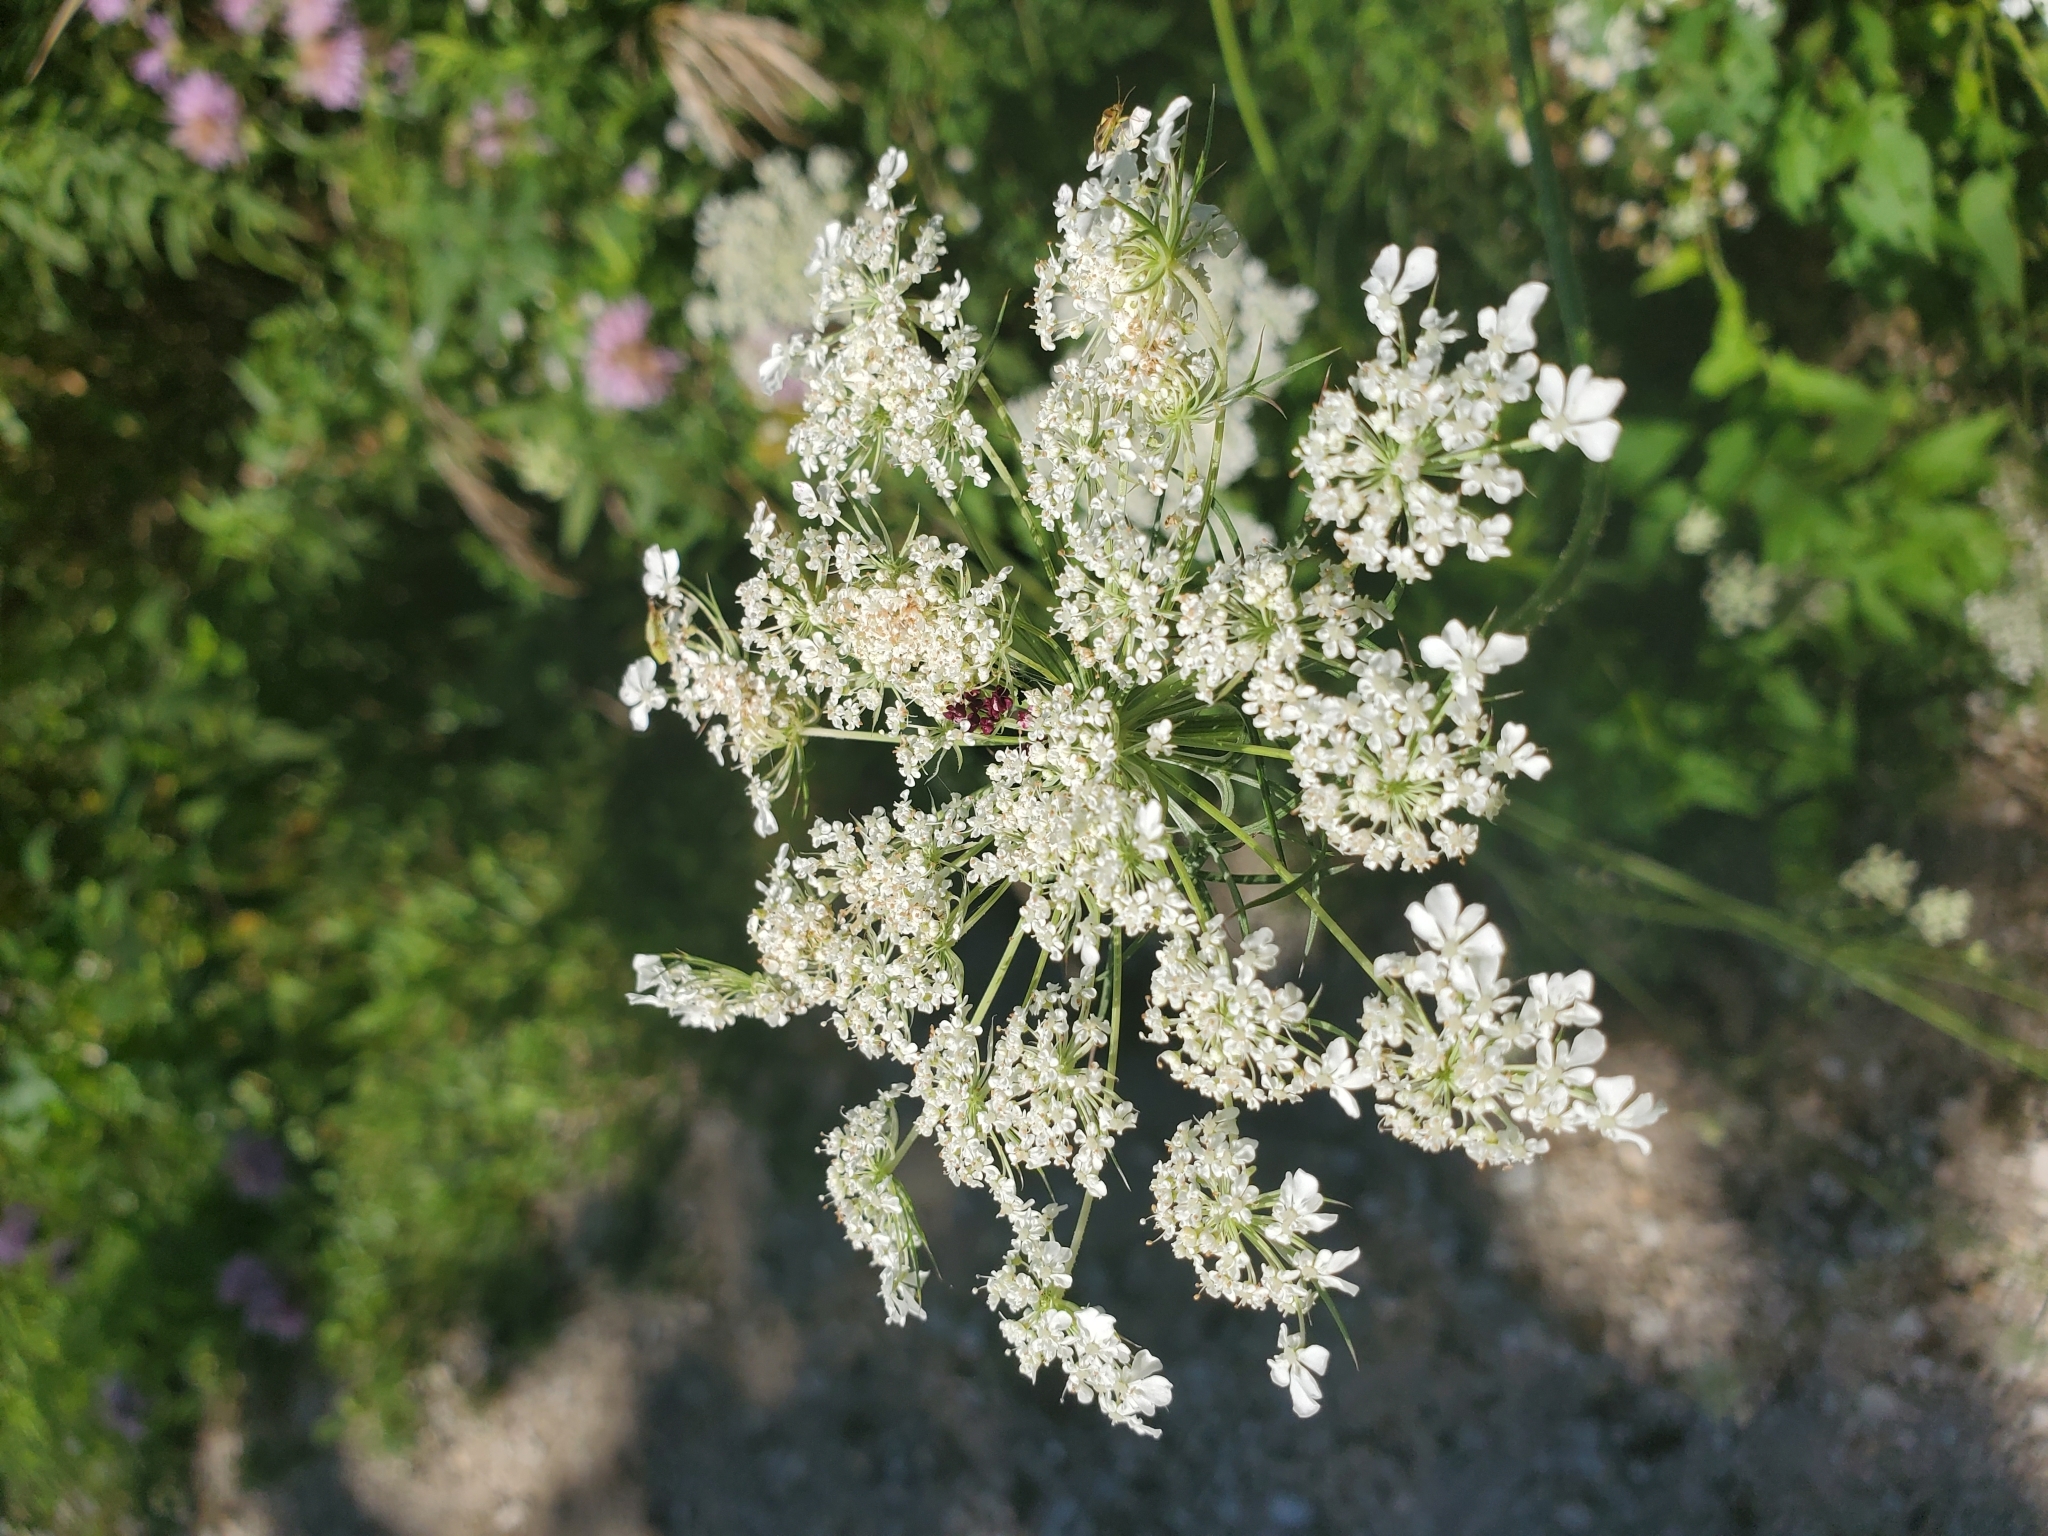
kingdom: Plantae
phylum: Tracheophyta
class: Magnoliopsida
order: Apiales
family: Apiaceae
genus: Daucus
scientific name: Daucus carota
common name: Wild carrot
